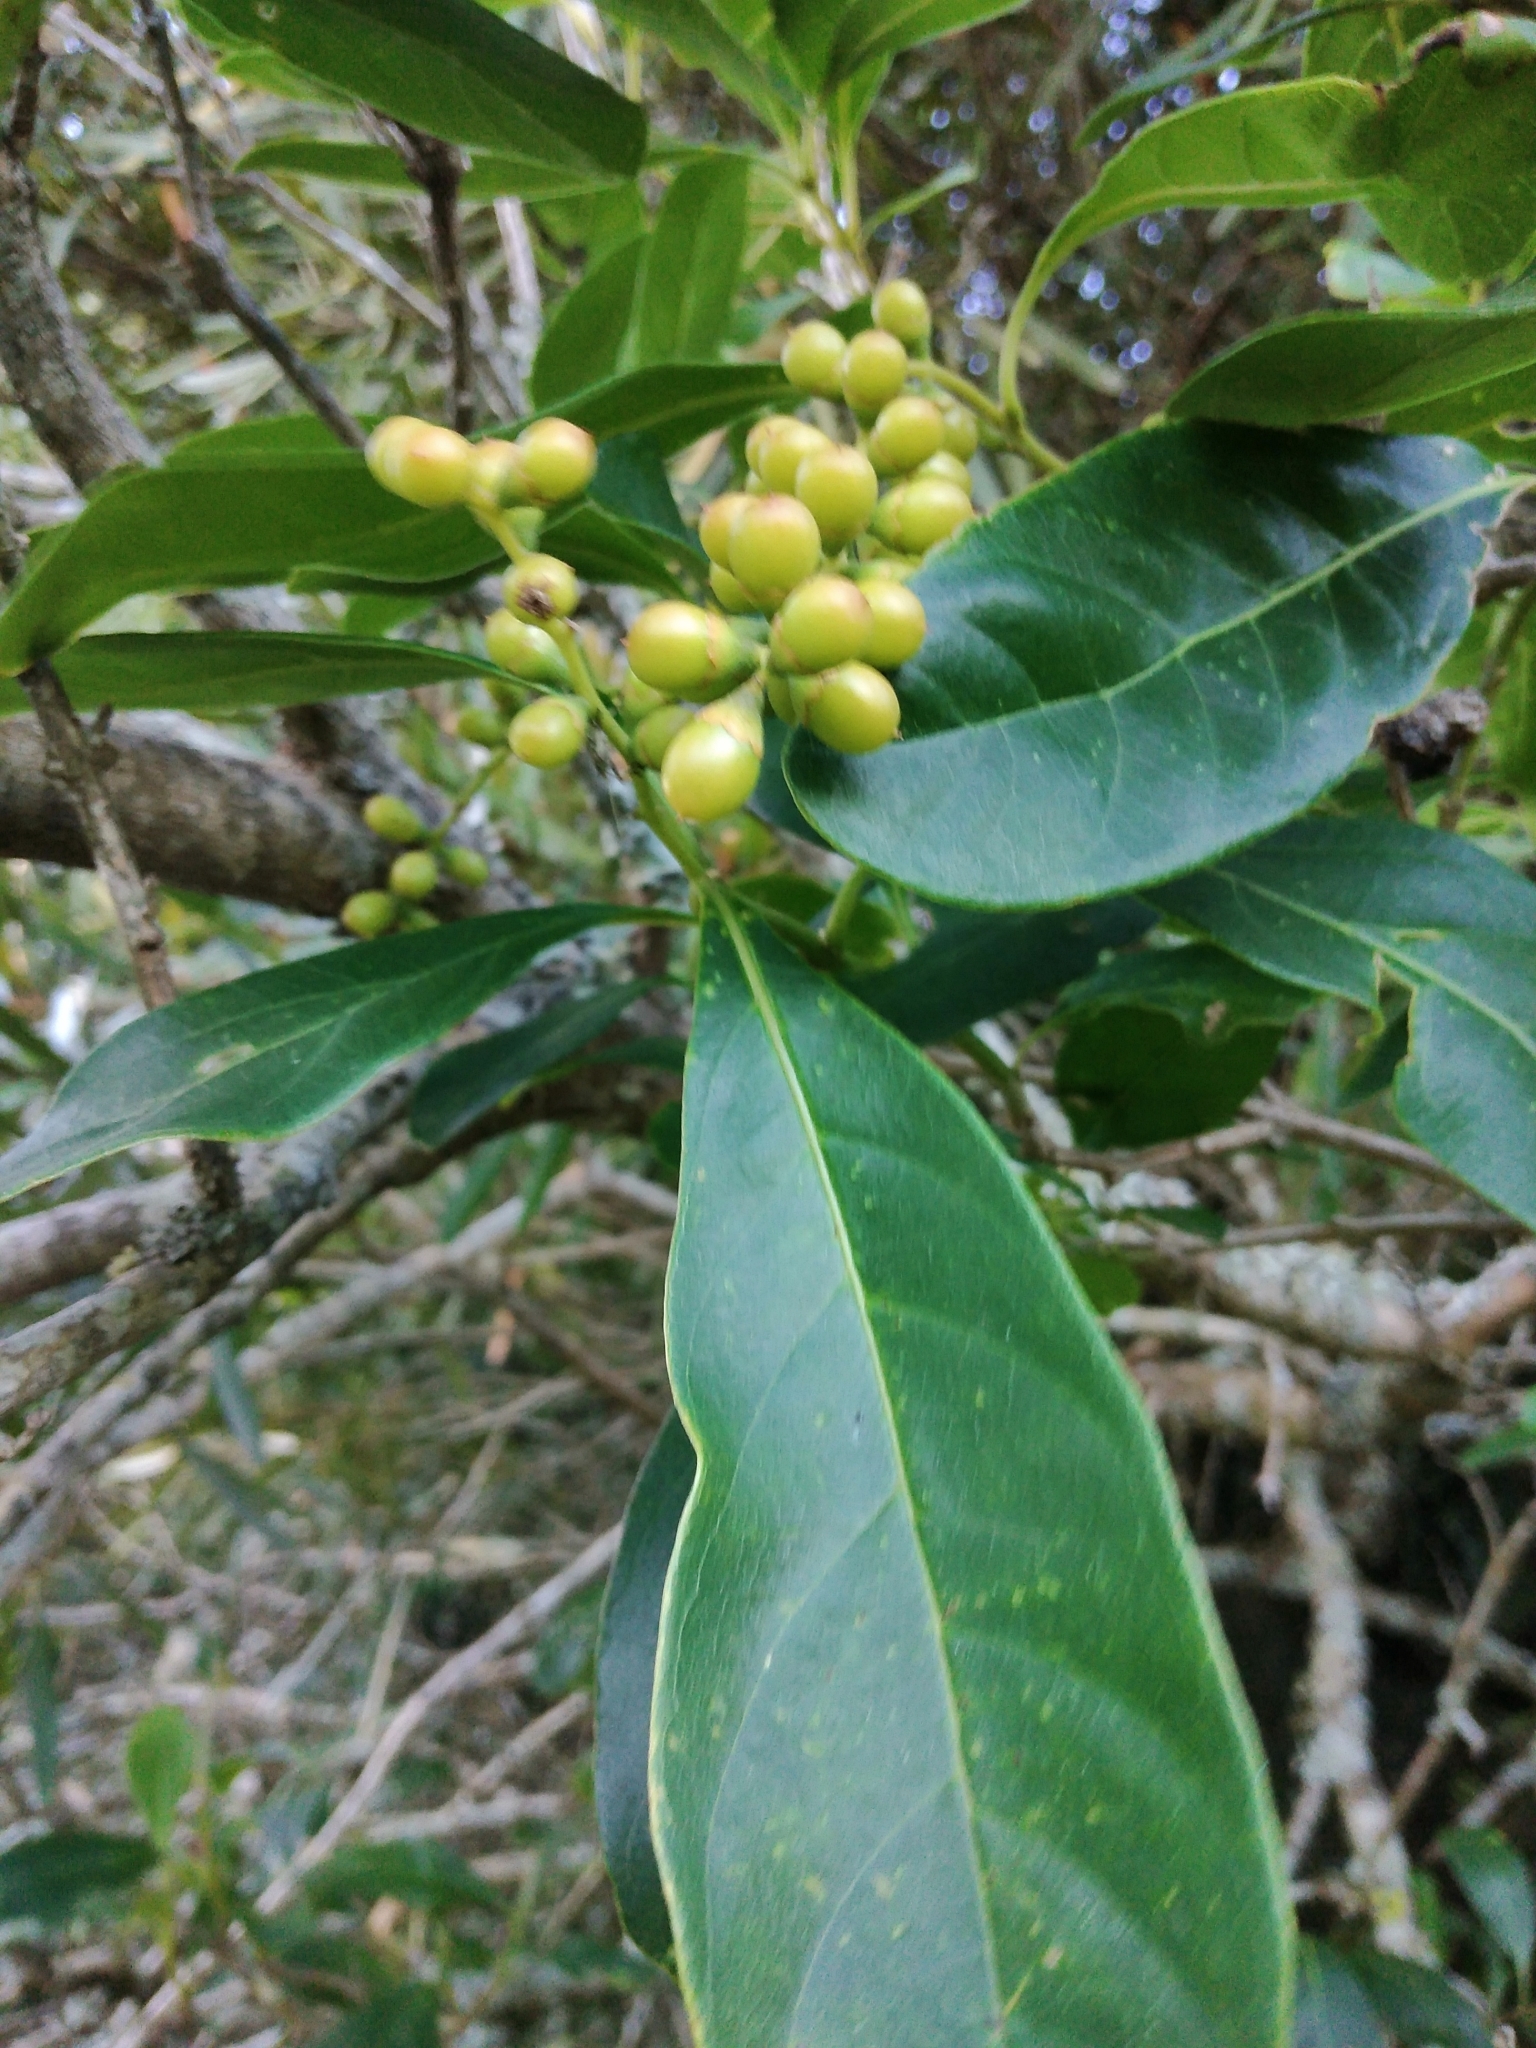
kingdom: Plantae
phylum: Tracheophyta
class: Magnoliopsida
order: Lamiales
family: Verbenaceae
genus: Citharexylum
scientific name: Citharexylum montevidense
